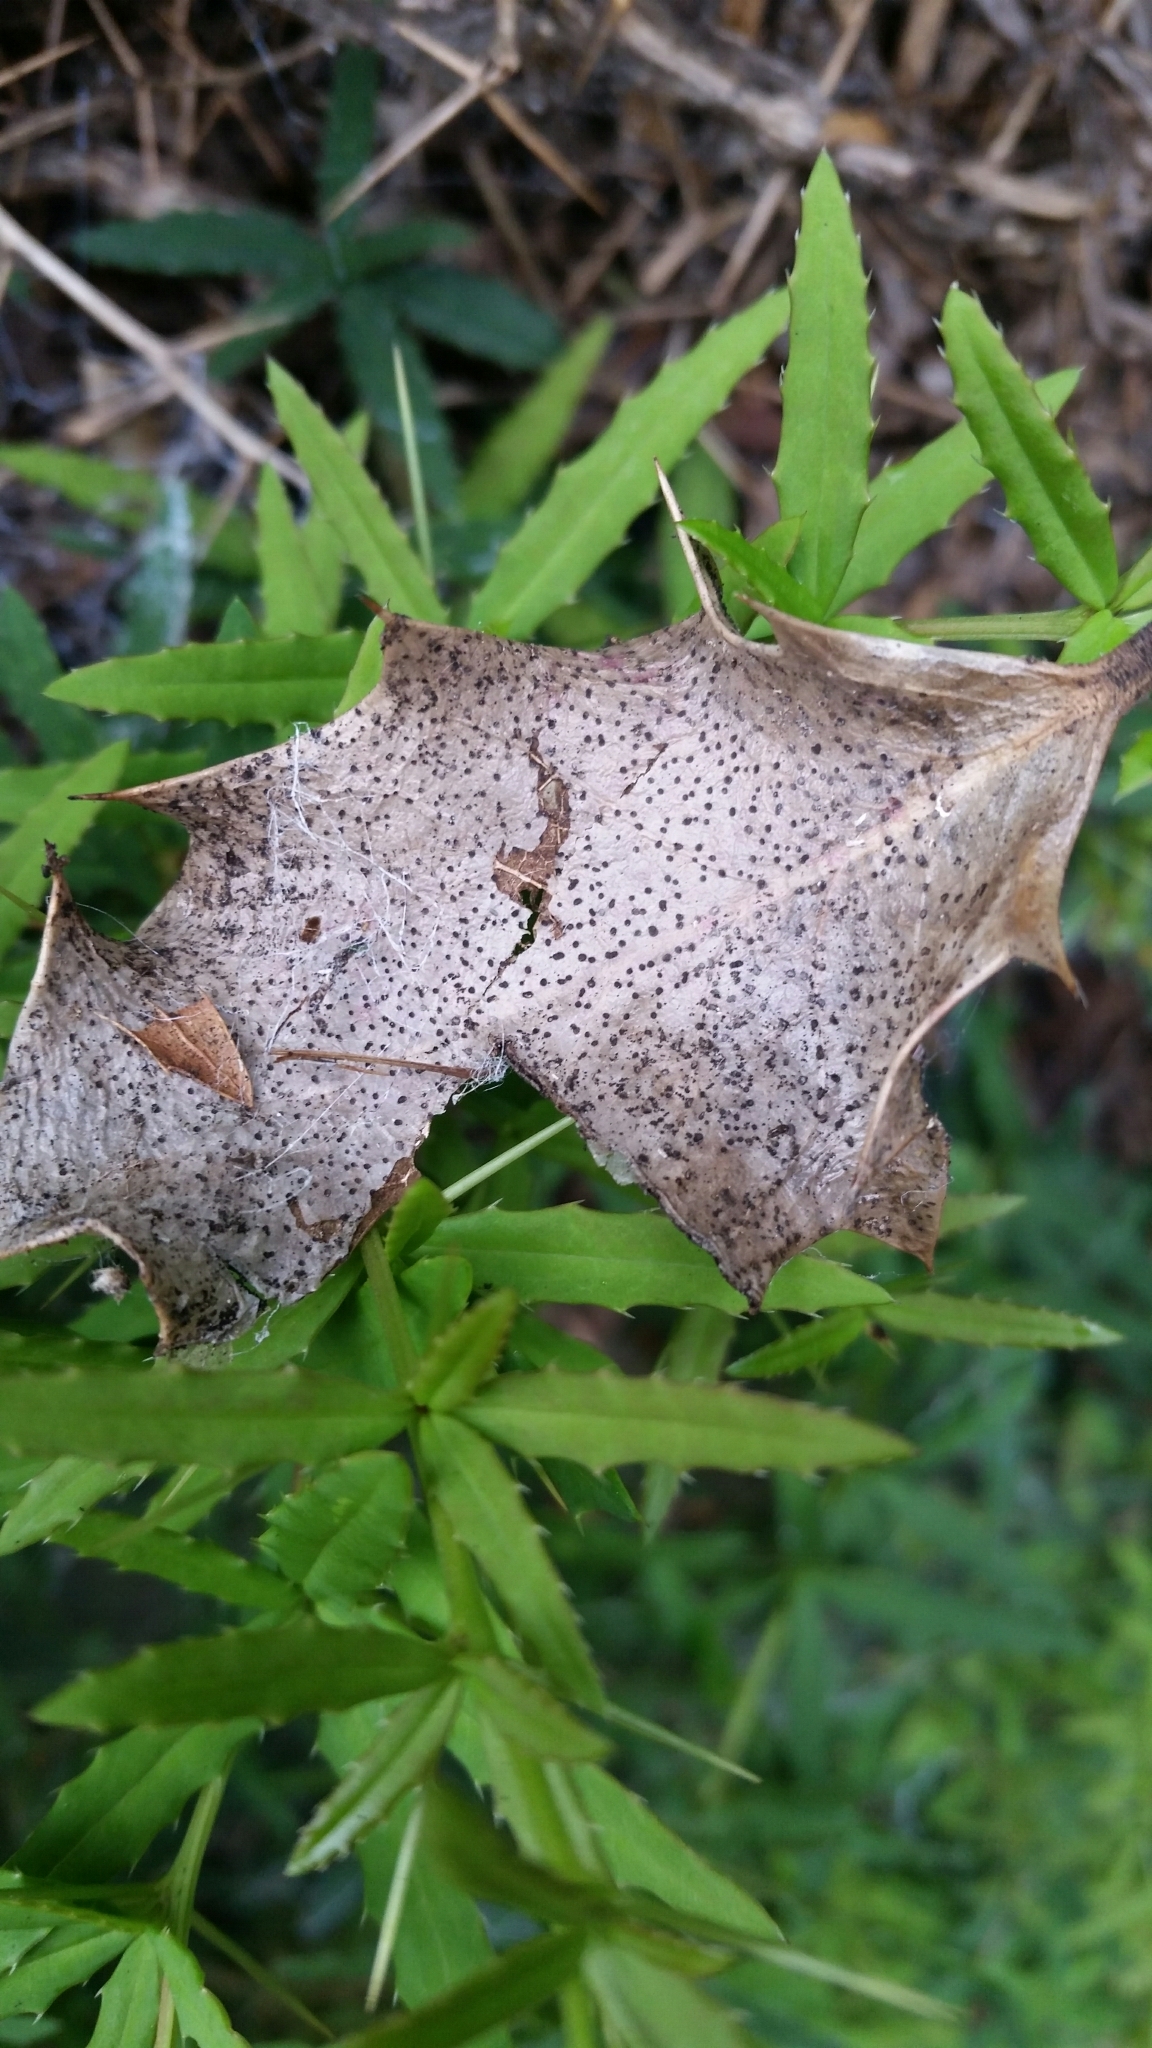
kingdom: Fungi
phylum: Ascomycota
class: Sordariomycetes
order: Diaporthales
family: Diaporthaceae
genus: Diaporthe
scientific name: Diaporthe crustosa
